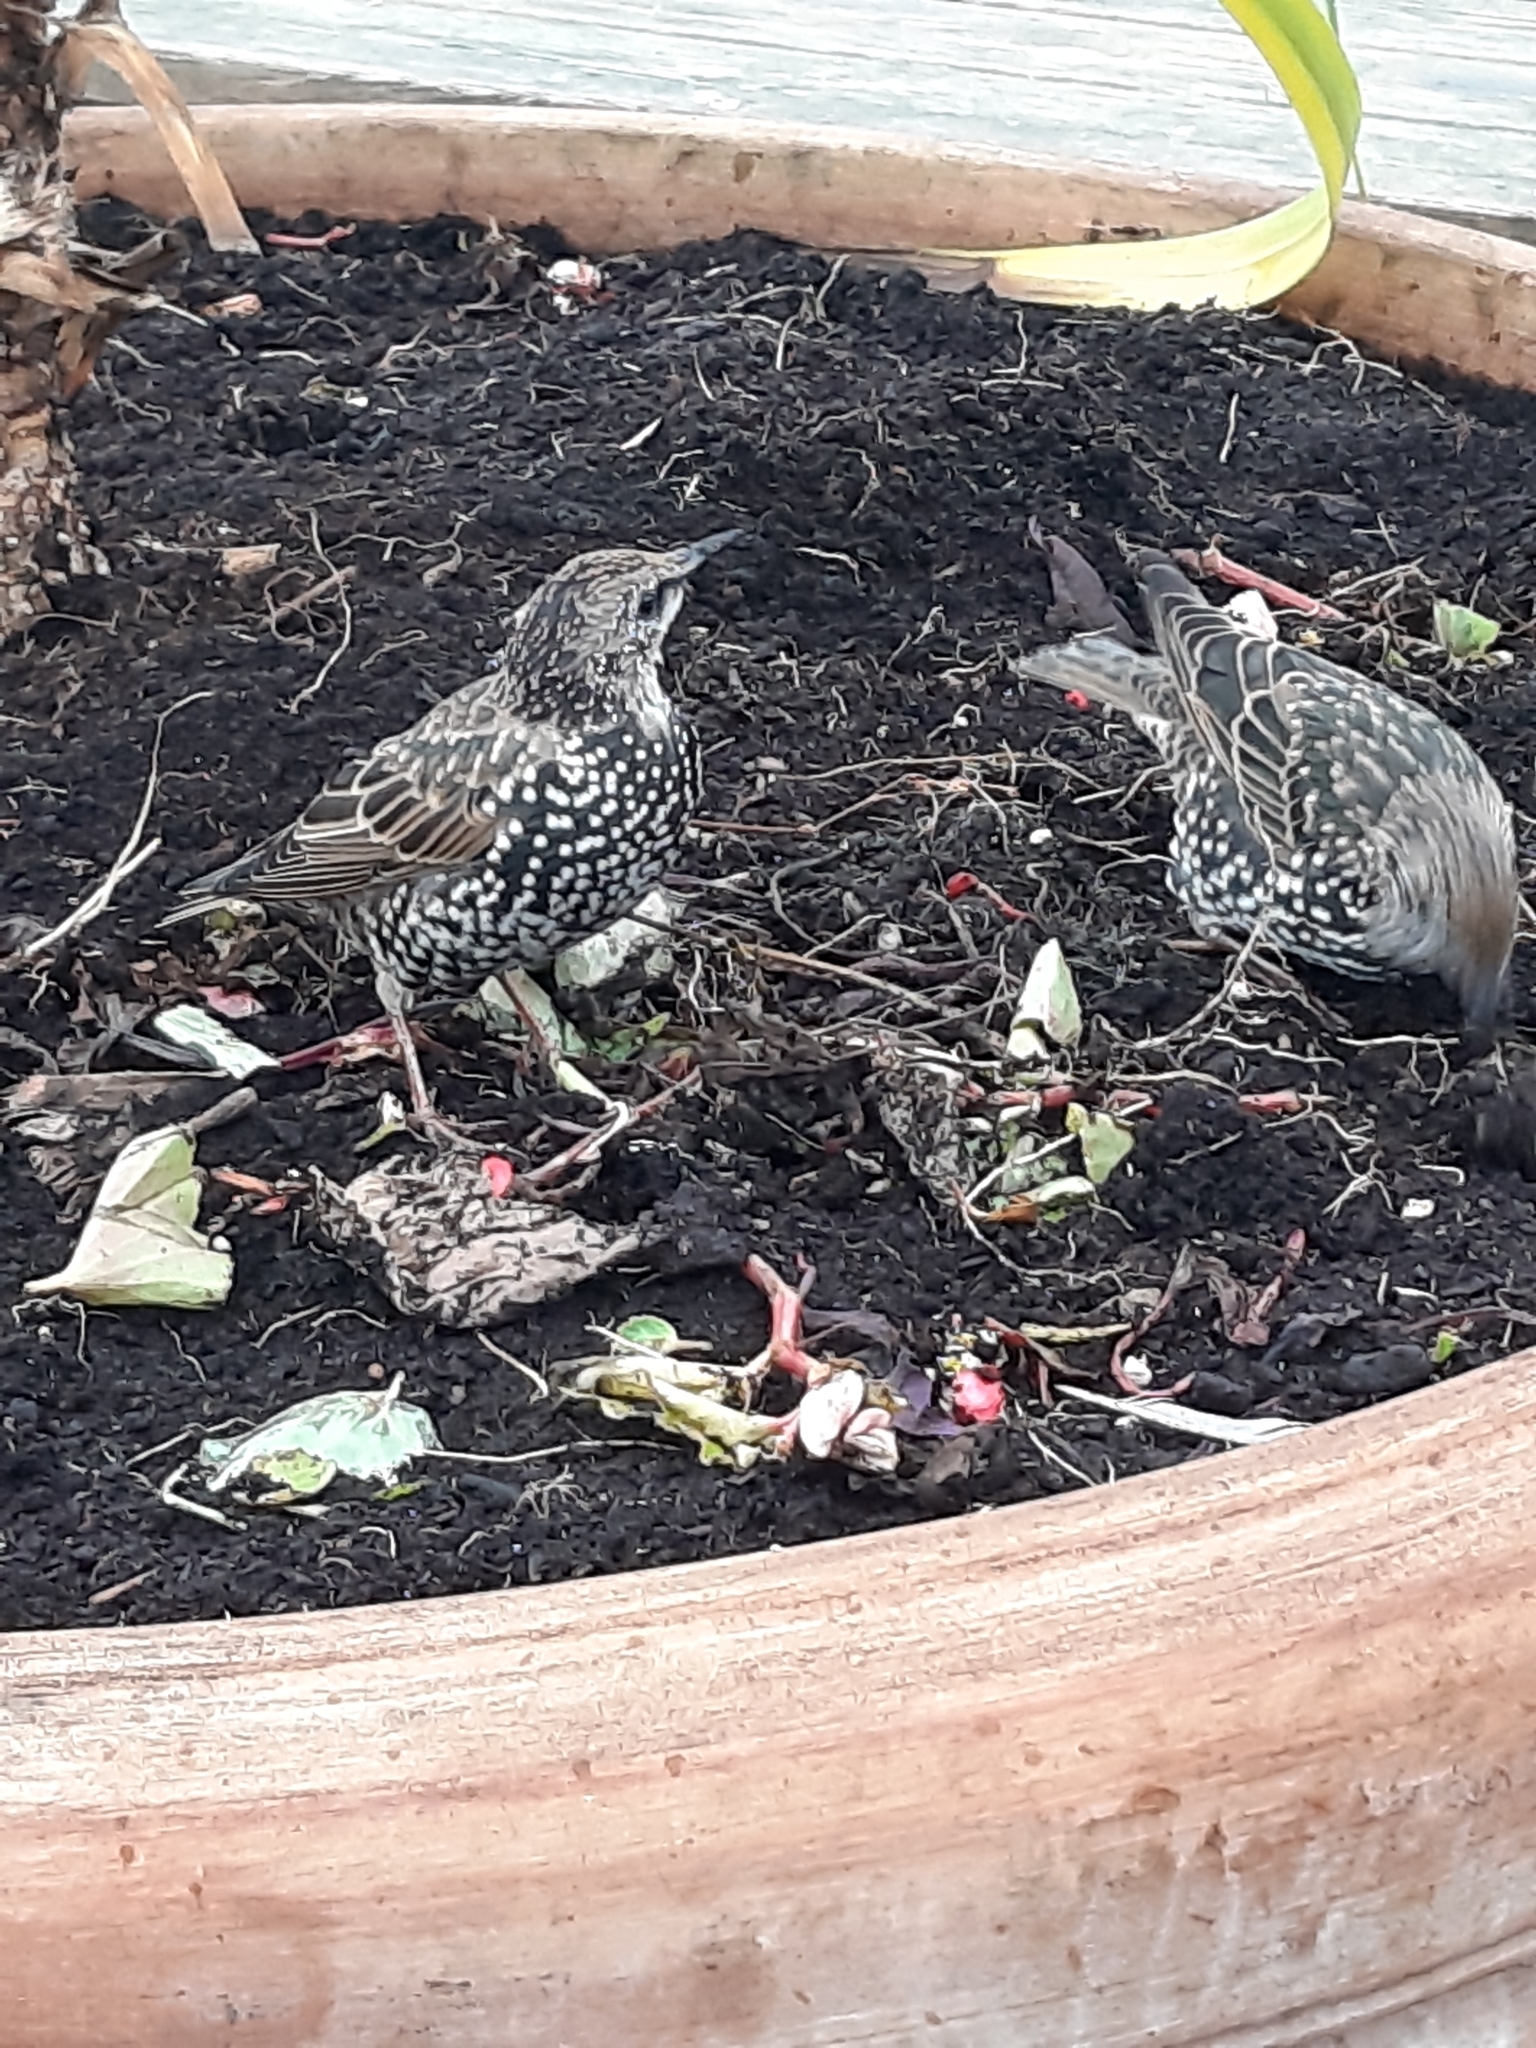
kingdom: Animalia
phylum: Chordata
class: Aves
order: Passeriformes
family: Sturnidae
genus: Sturnus
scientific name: Sturnus vulgaris
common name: Common starling
